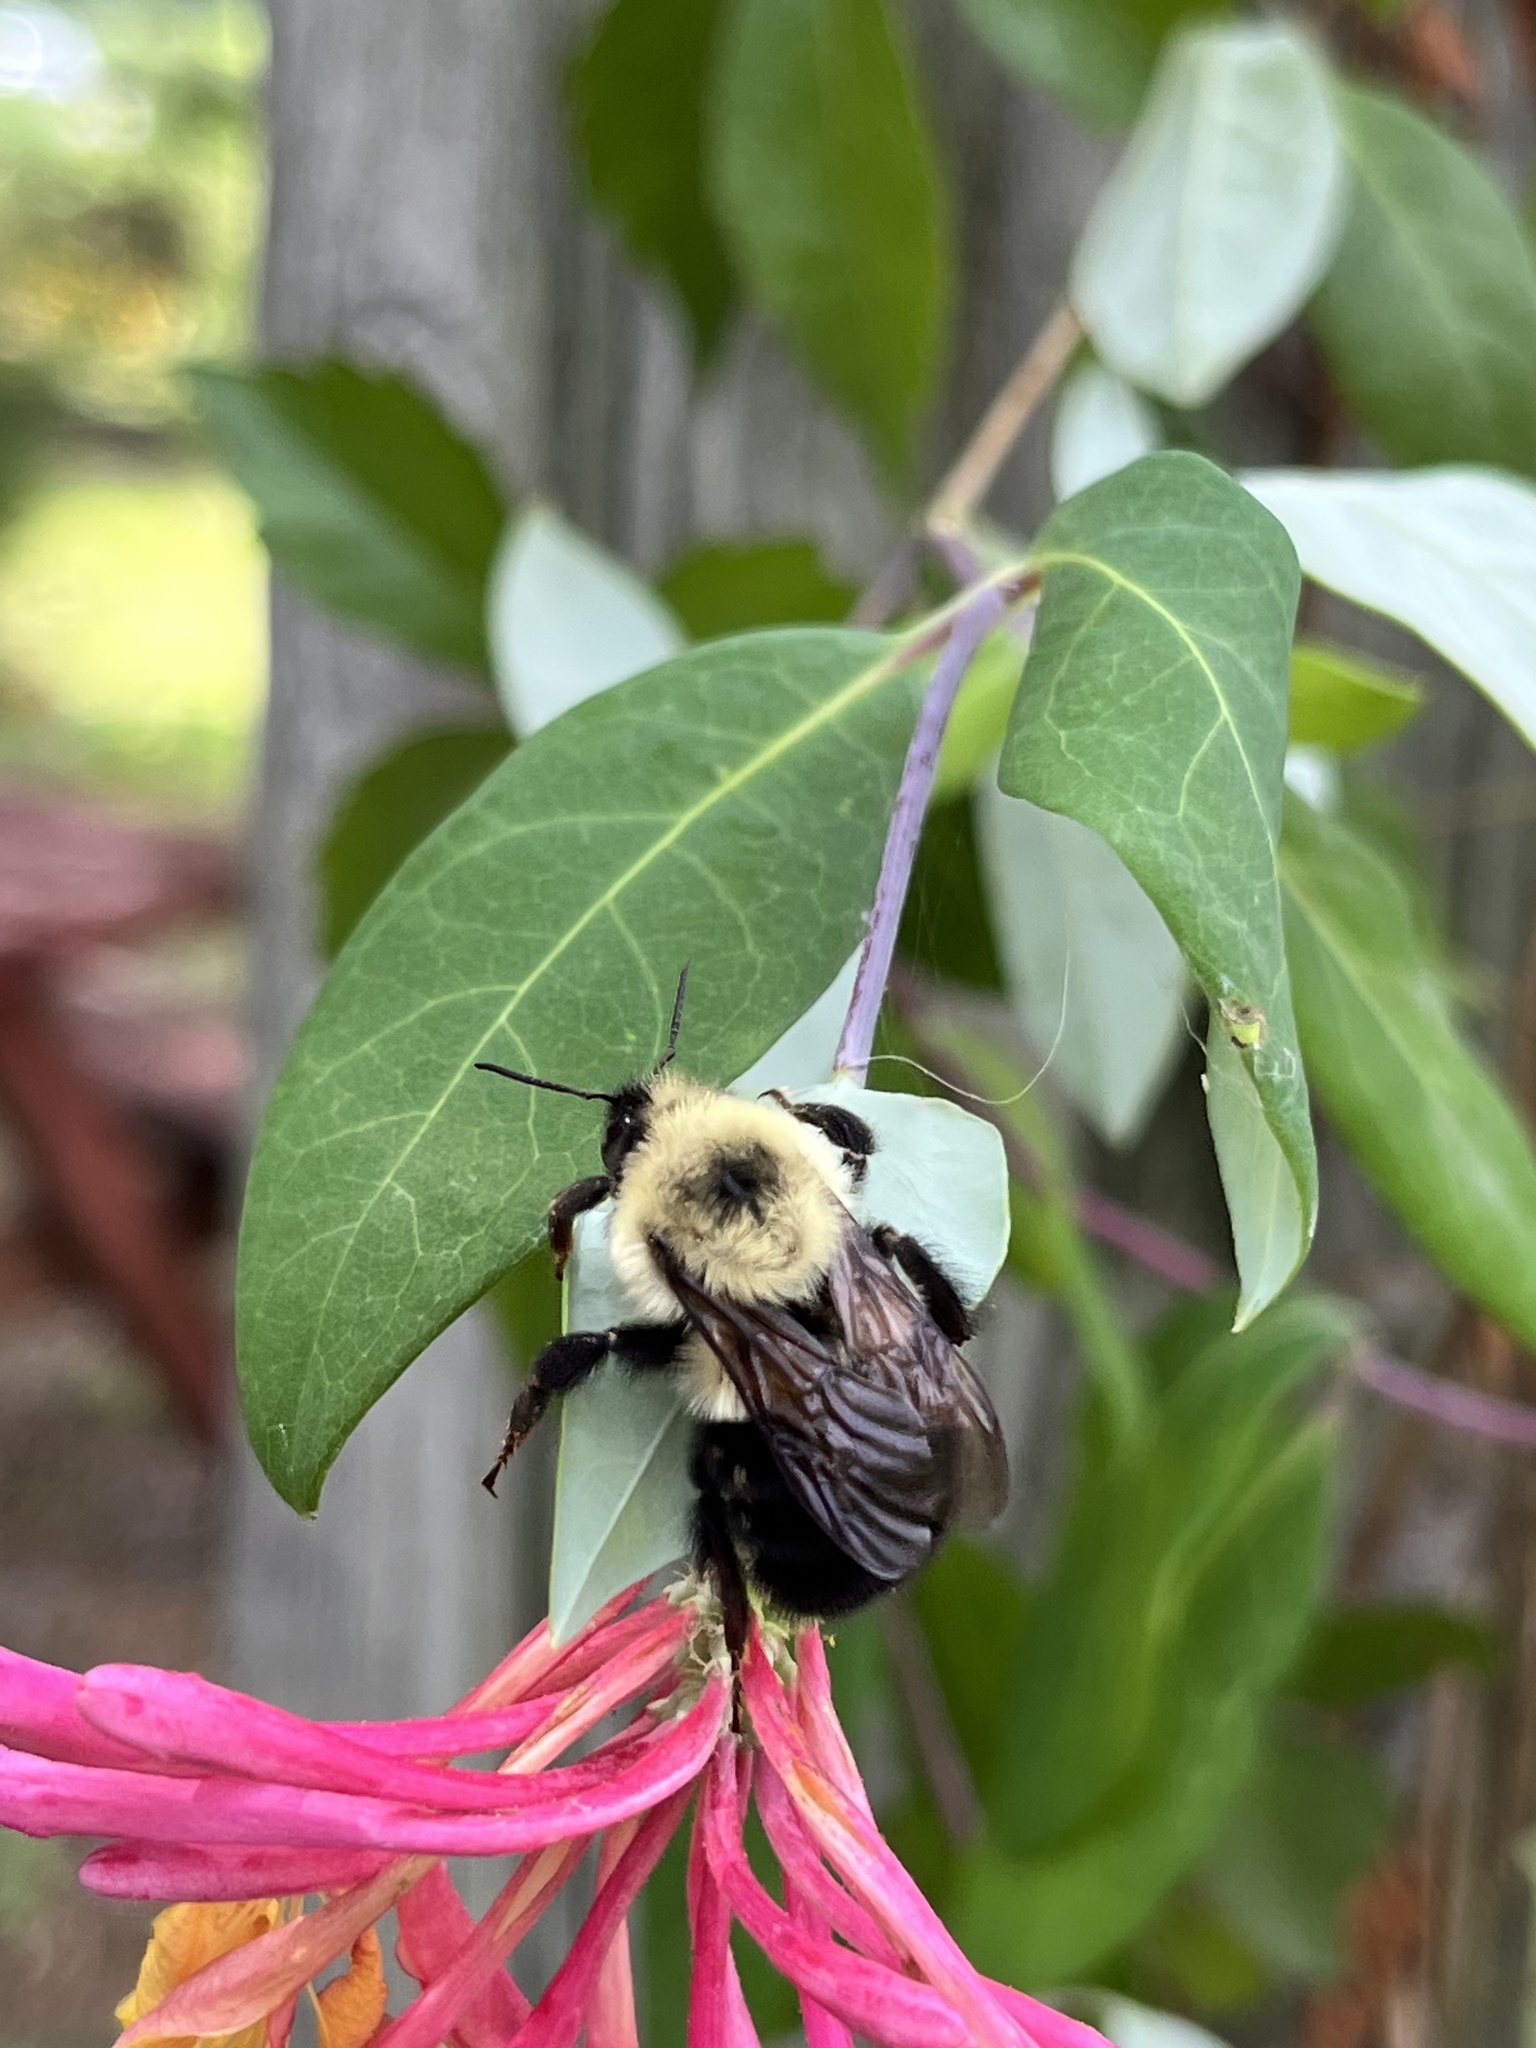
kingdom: Animalia
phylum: Arthropoda
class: Insecta
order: Hymenoptera
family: Apidae
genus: Bombus
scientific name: Bombus bimaculatus
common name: Two-spotted bumble bee
